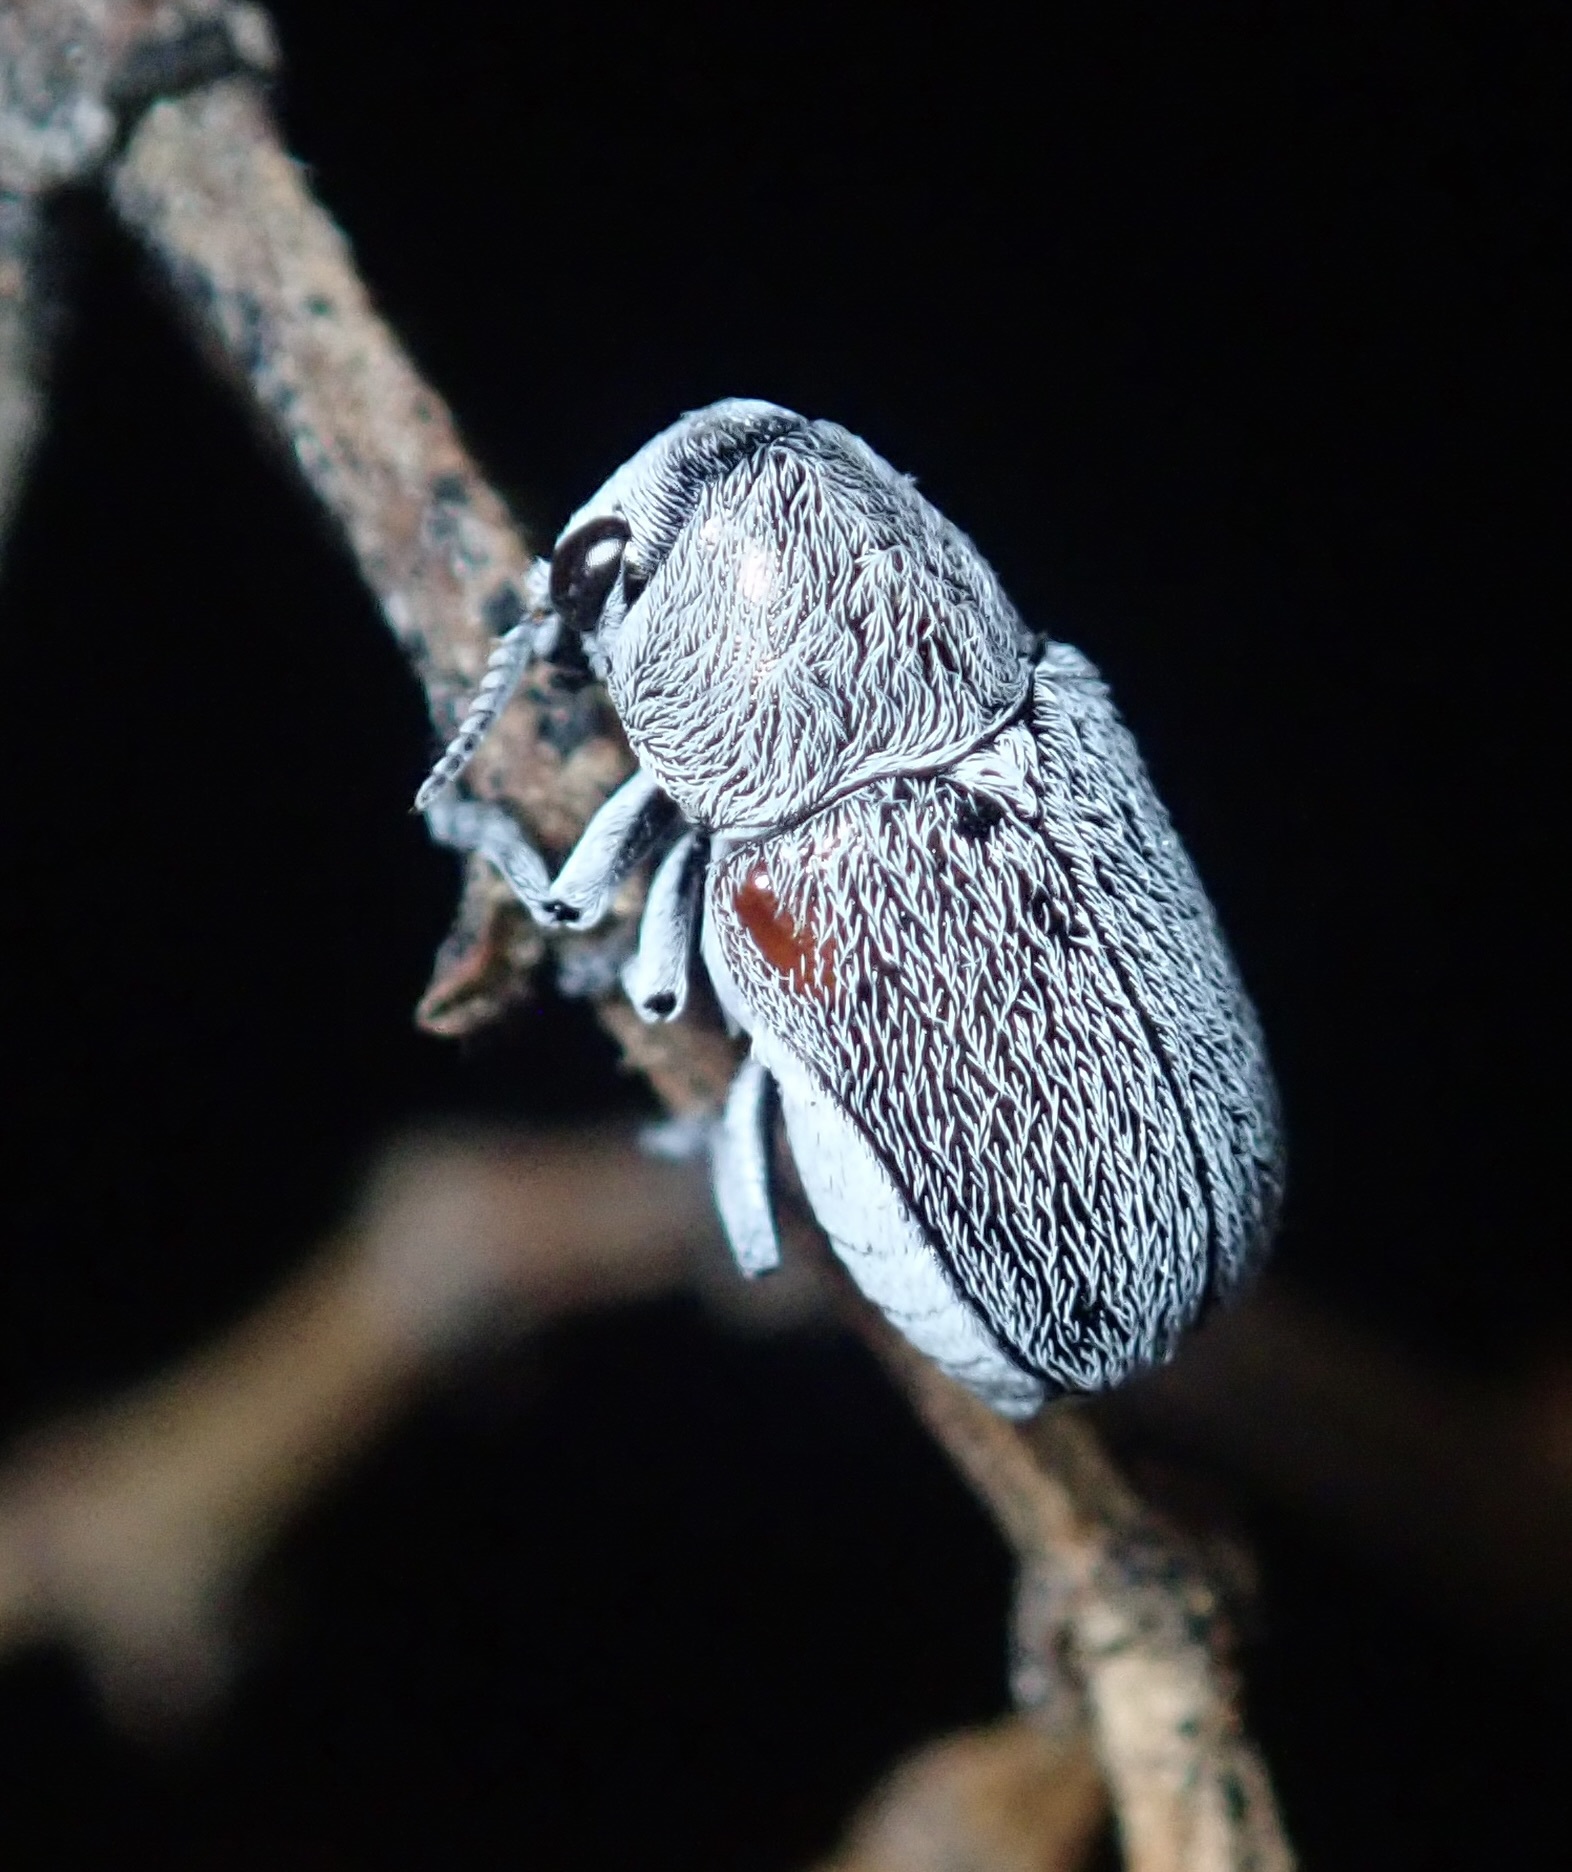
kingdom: Animalia
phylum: Arthropoda
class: Insecta
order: Coleoptera
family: Chrysomelidae
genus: Coleothorpa
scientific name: Coleothorpa axillaris
